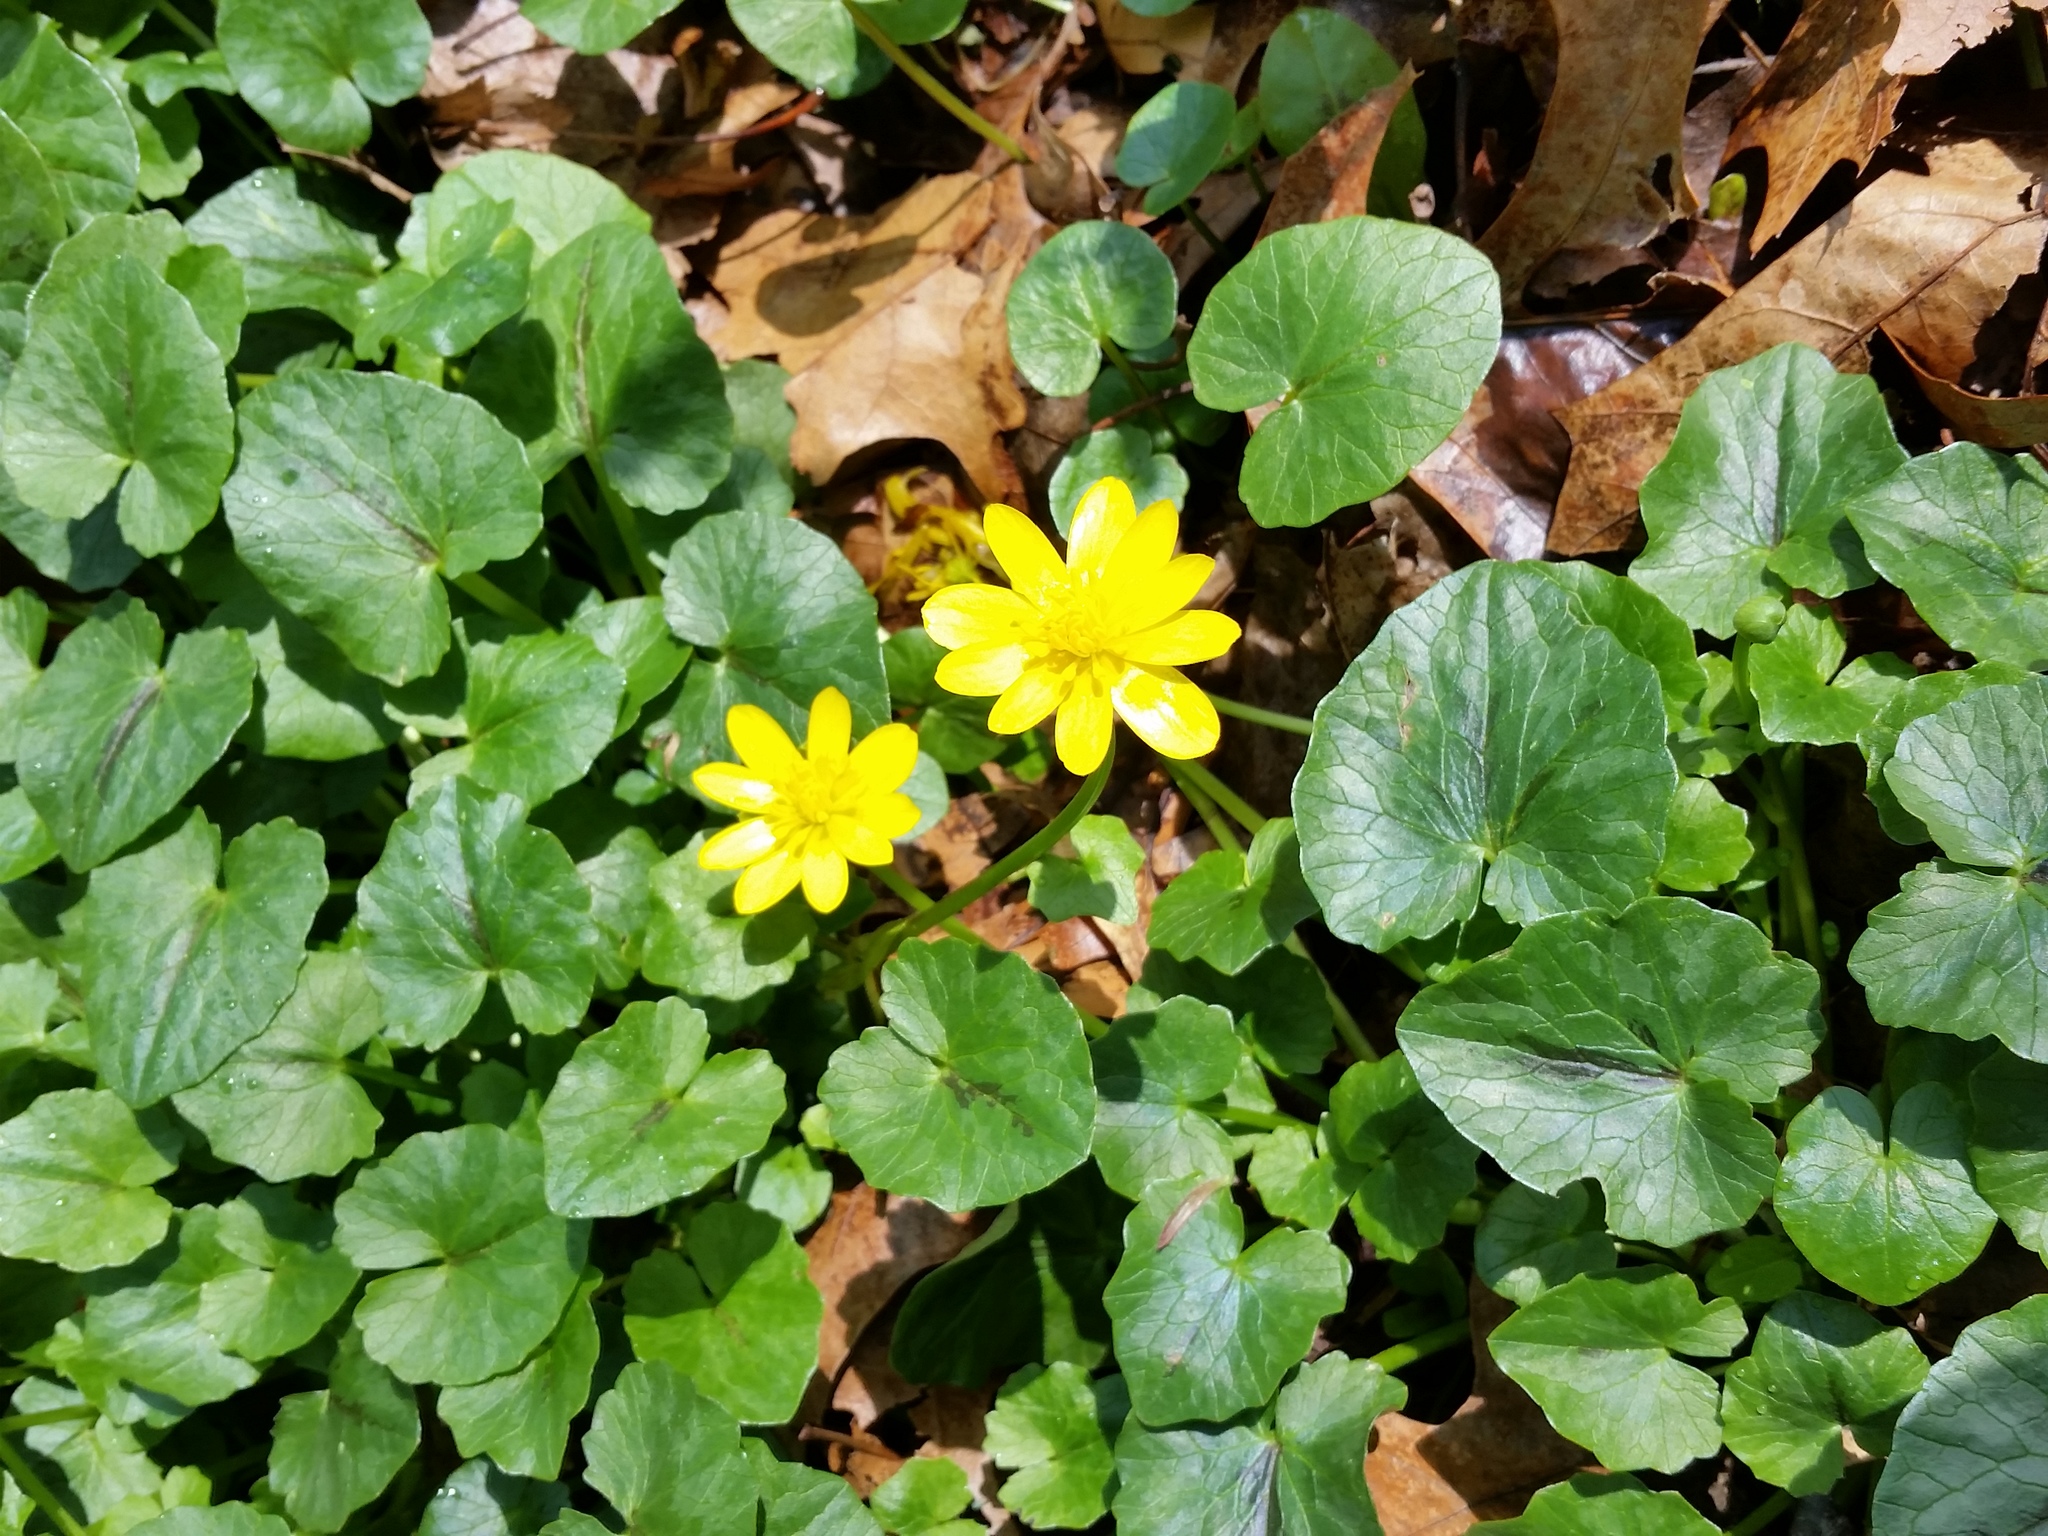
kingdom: Plantae
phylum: Tracheophyta
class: Magnoliopsida
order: Ranunculales
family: Ranunculaceae
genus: Ficaria
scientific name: Ficaria verna
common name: Lesser celandine
